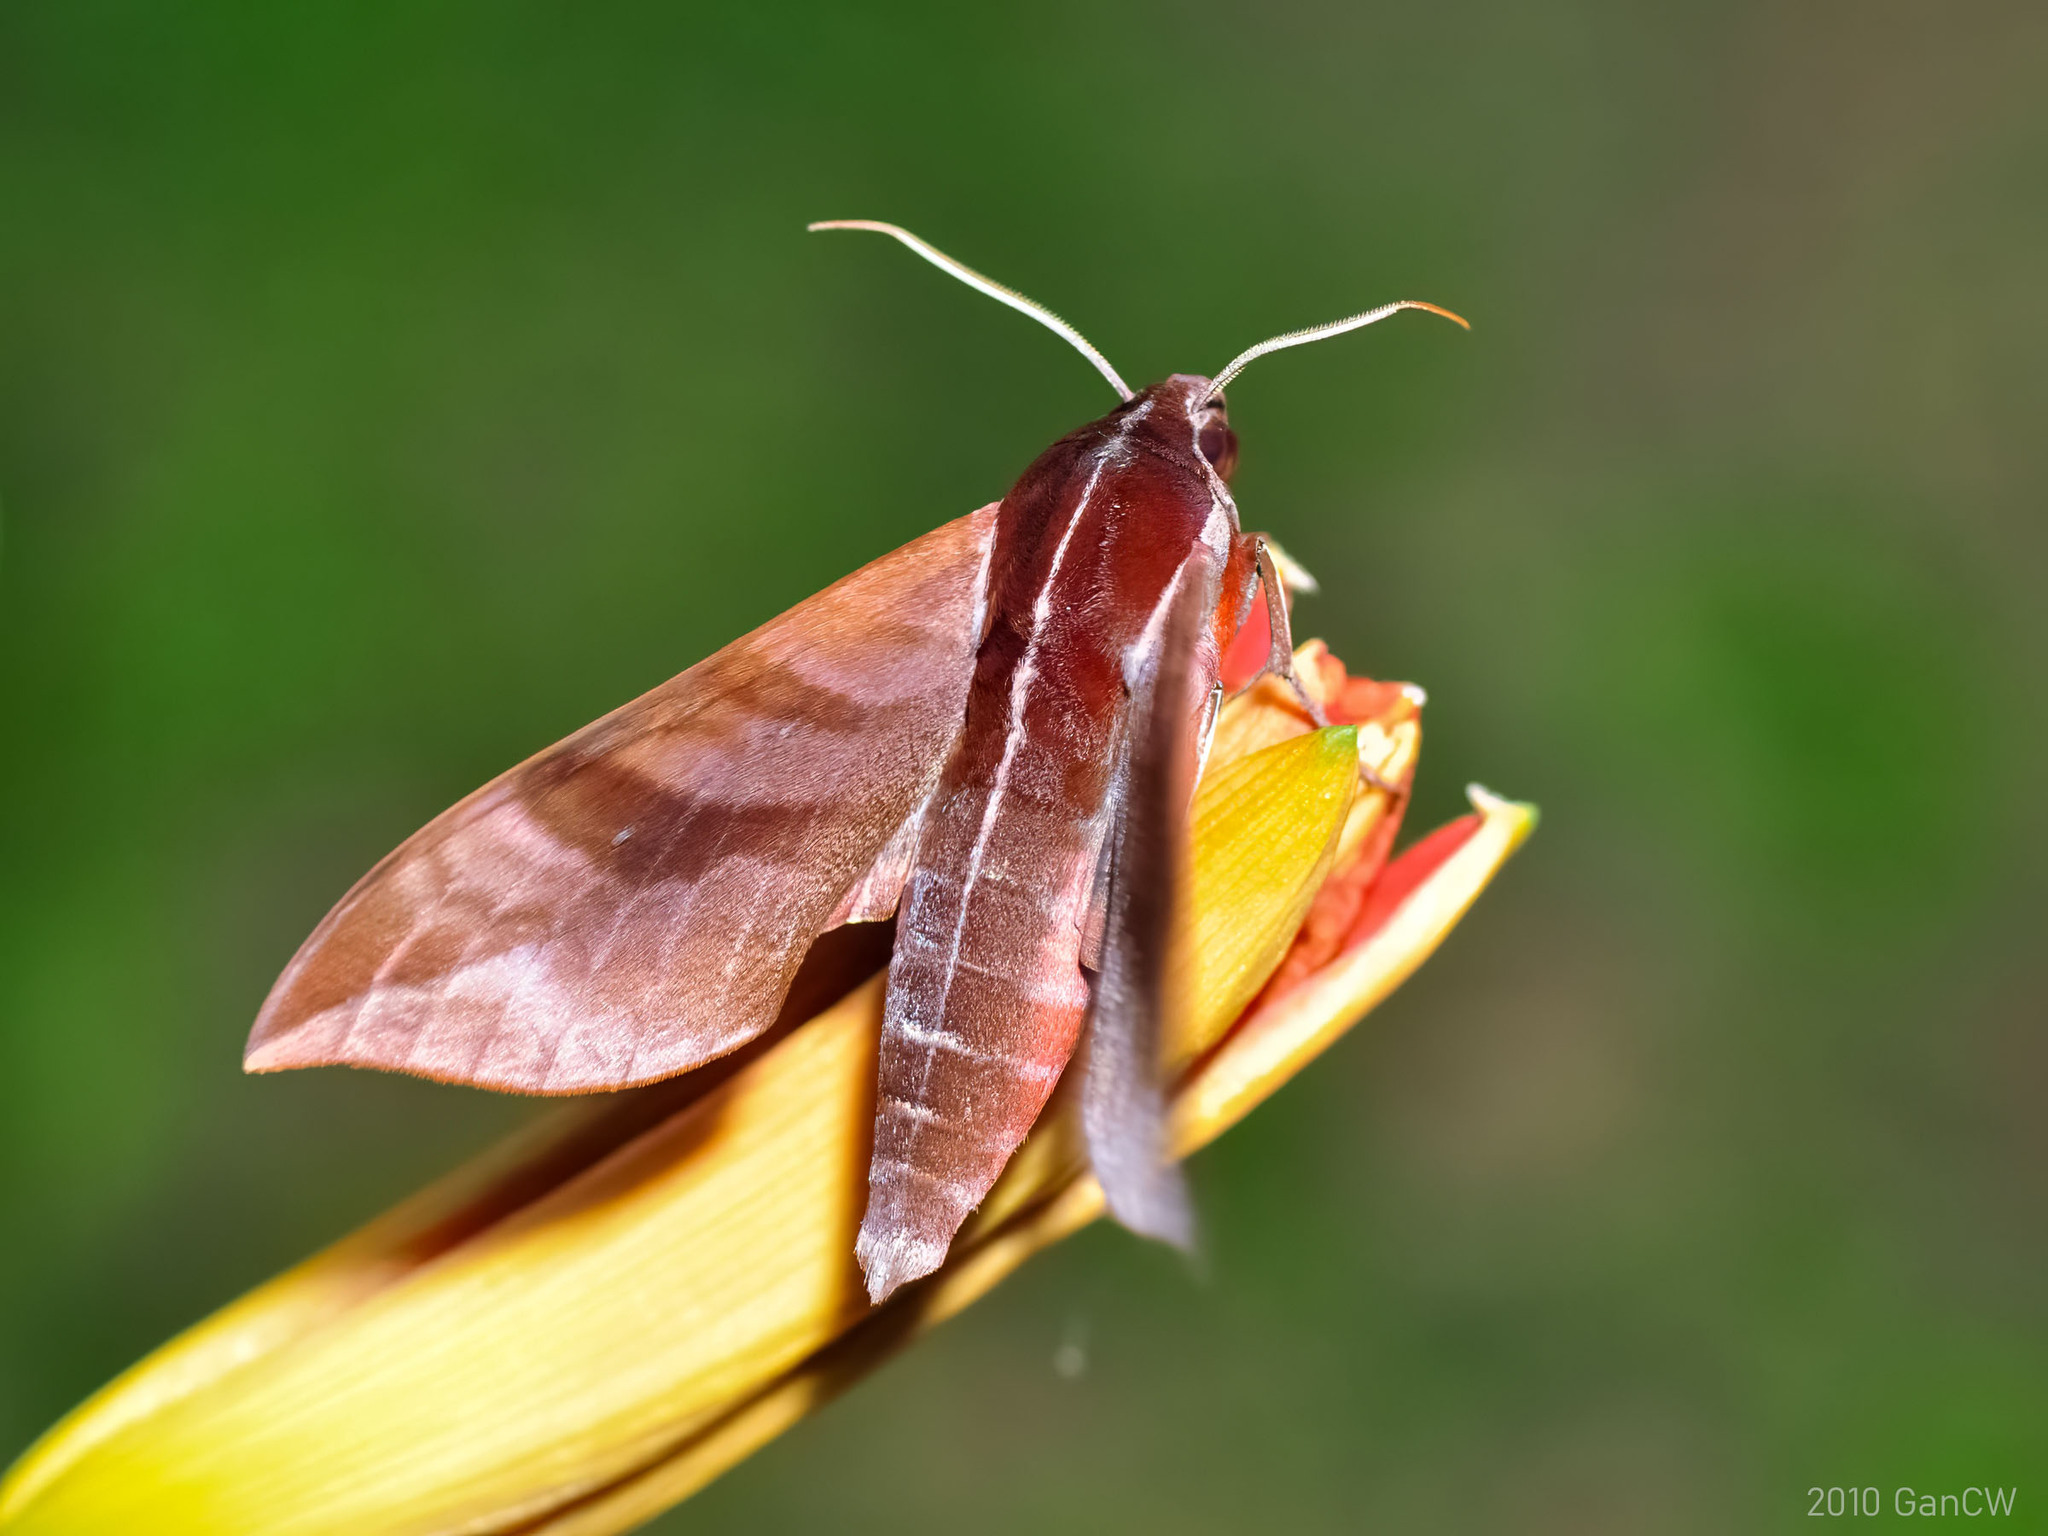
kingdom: Animalia
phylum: Arthropoda
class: Insecta
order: Lepidoptera
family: Sphingidae
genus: Ampelophaga
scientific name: Ampelophaga rubiginosa
